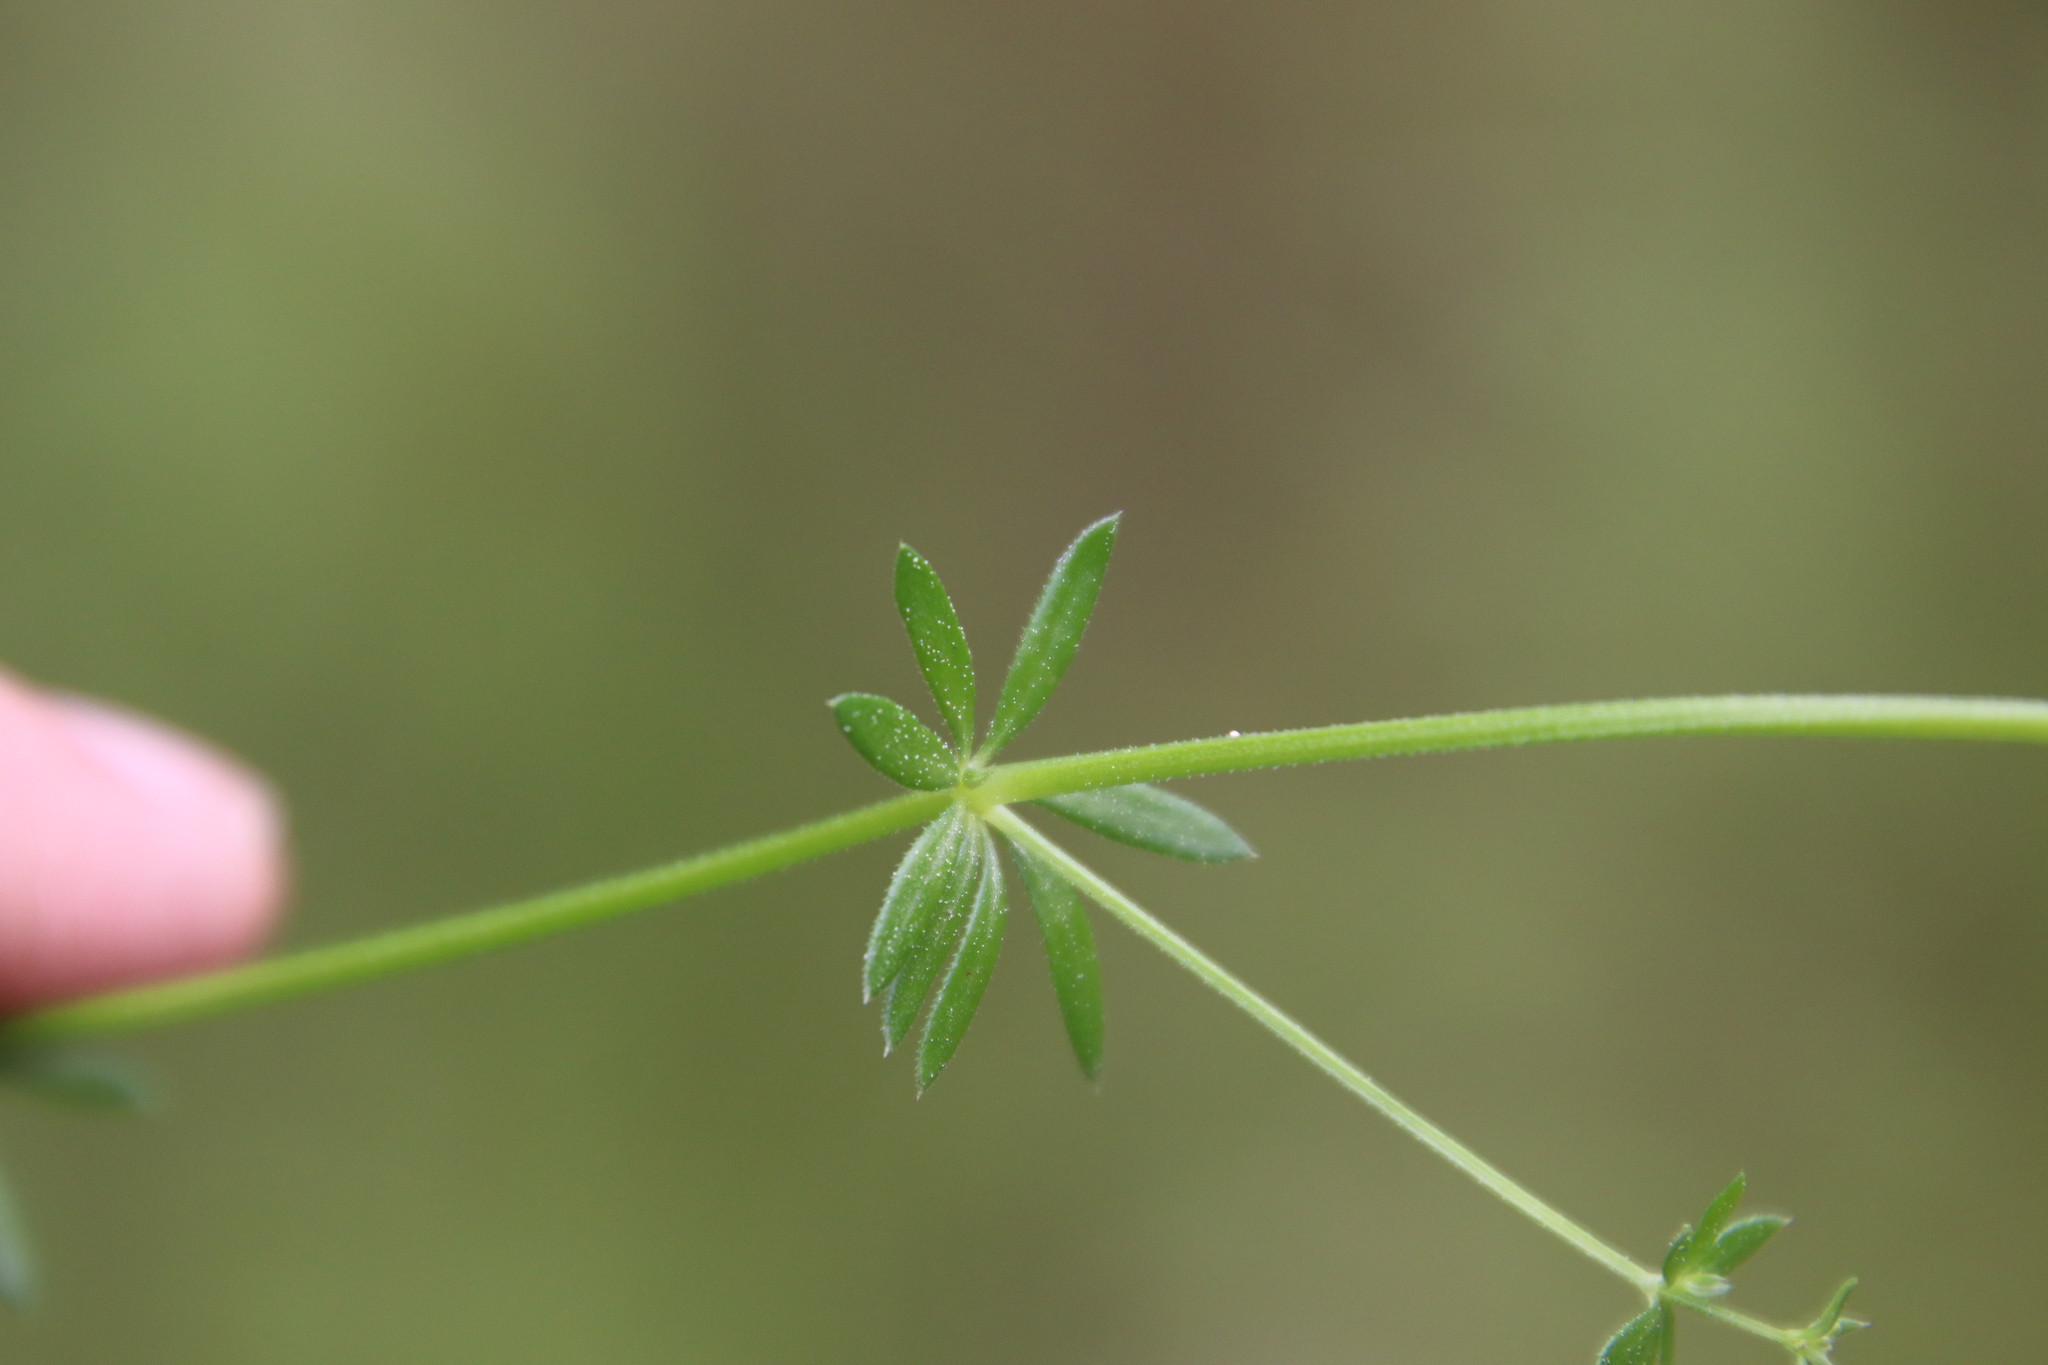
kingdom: Plantae
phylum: Tracheophyta
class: Magnoliopsida
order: Gentianales
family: Rubiaceae
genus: Galium
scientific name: Galium aparine
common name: Cleavers
